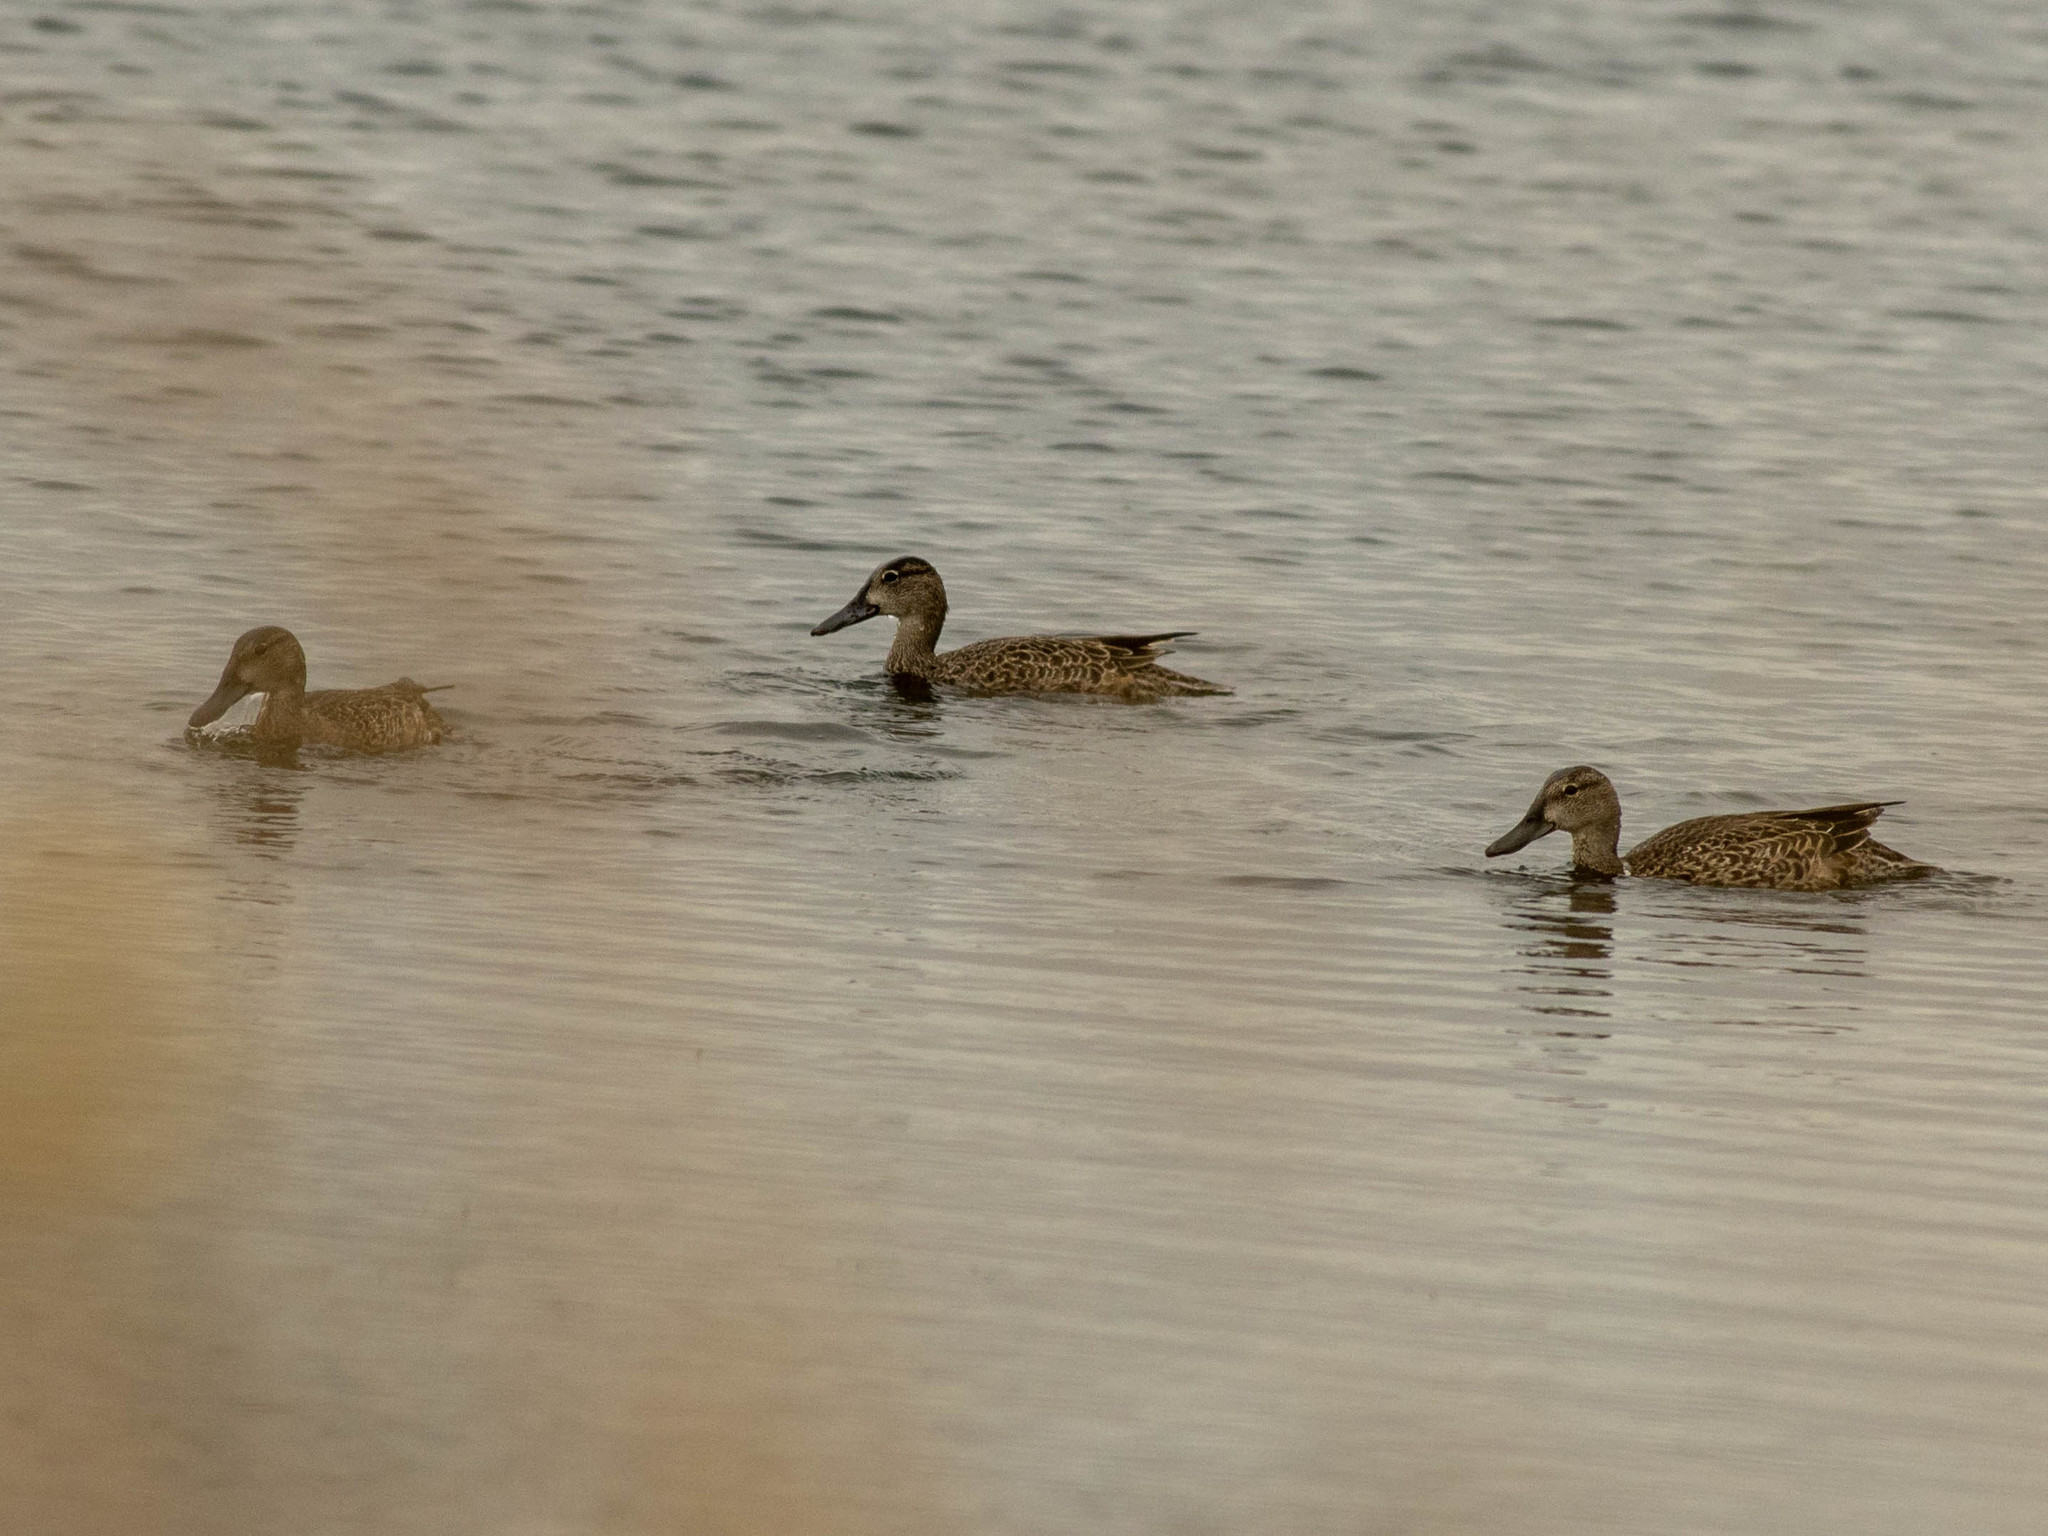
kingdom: Animalia
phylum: Chordata
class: Aves
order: Anseriformes
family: Anatidae
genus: Spatula
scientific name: Spatula discors
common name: Blue-winged teal
